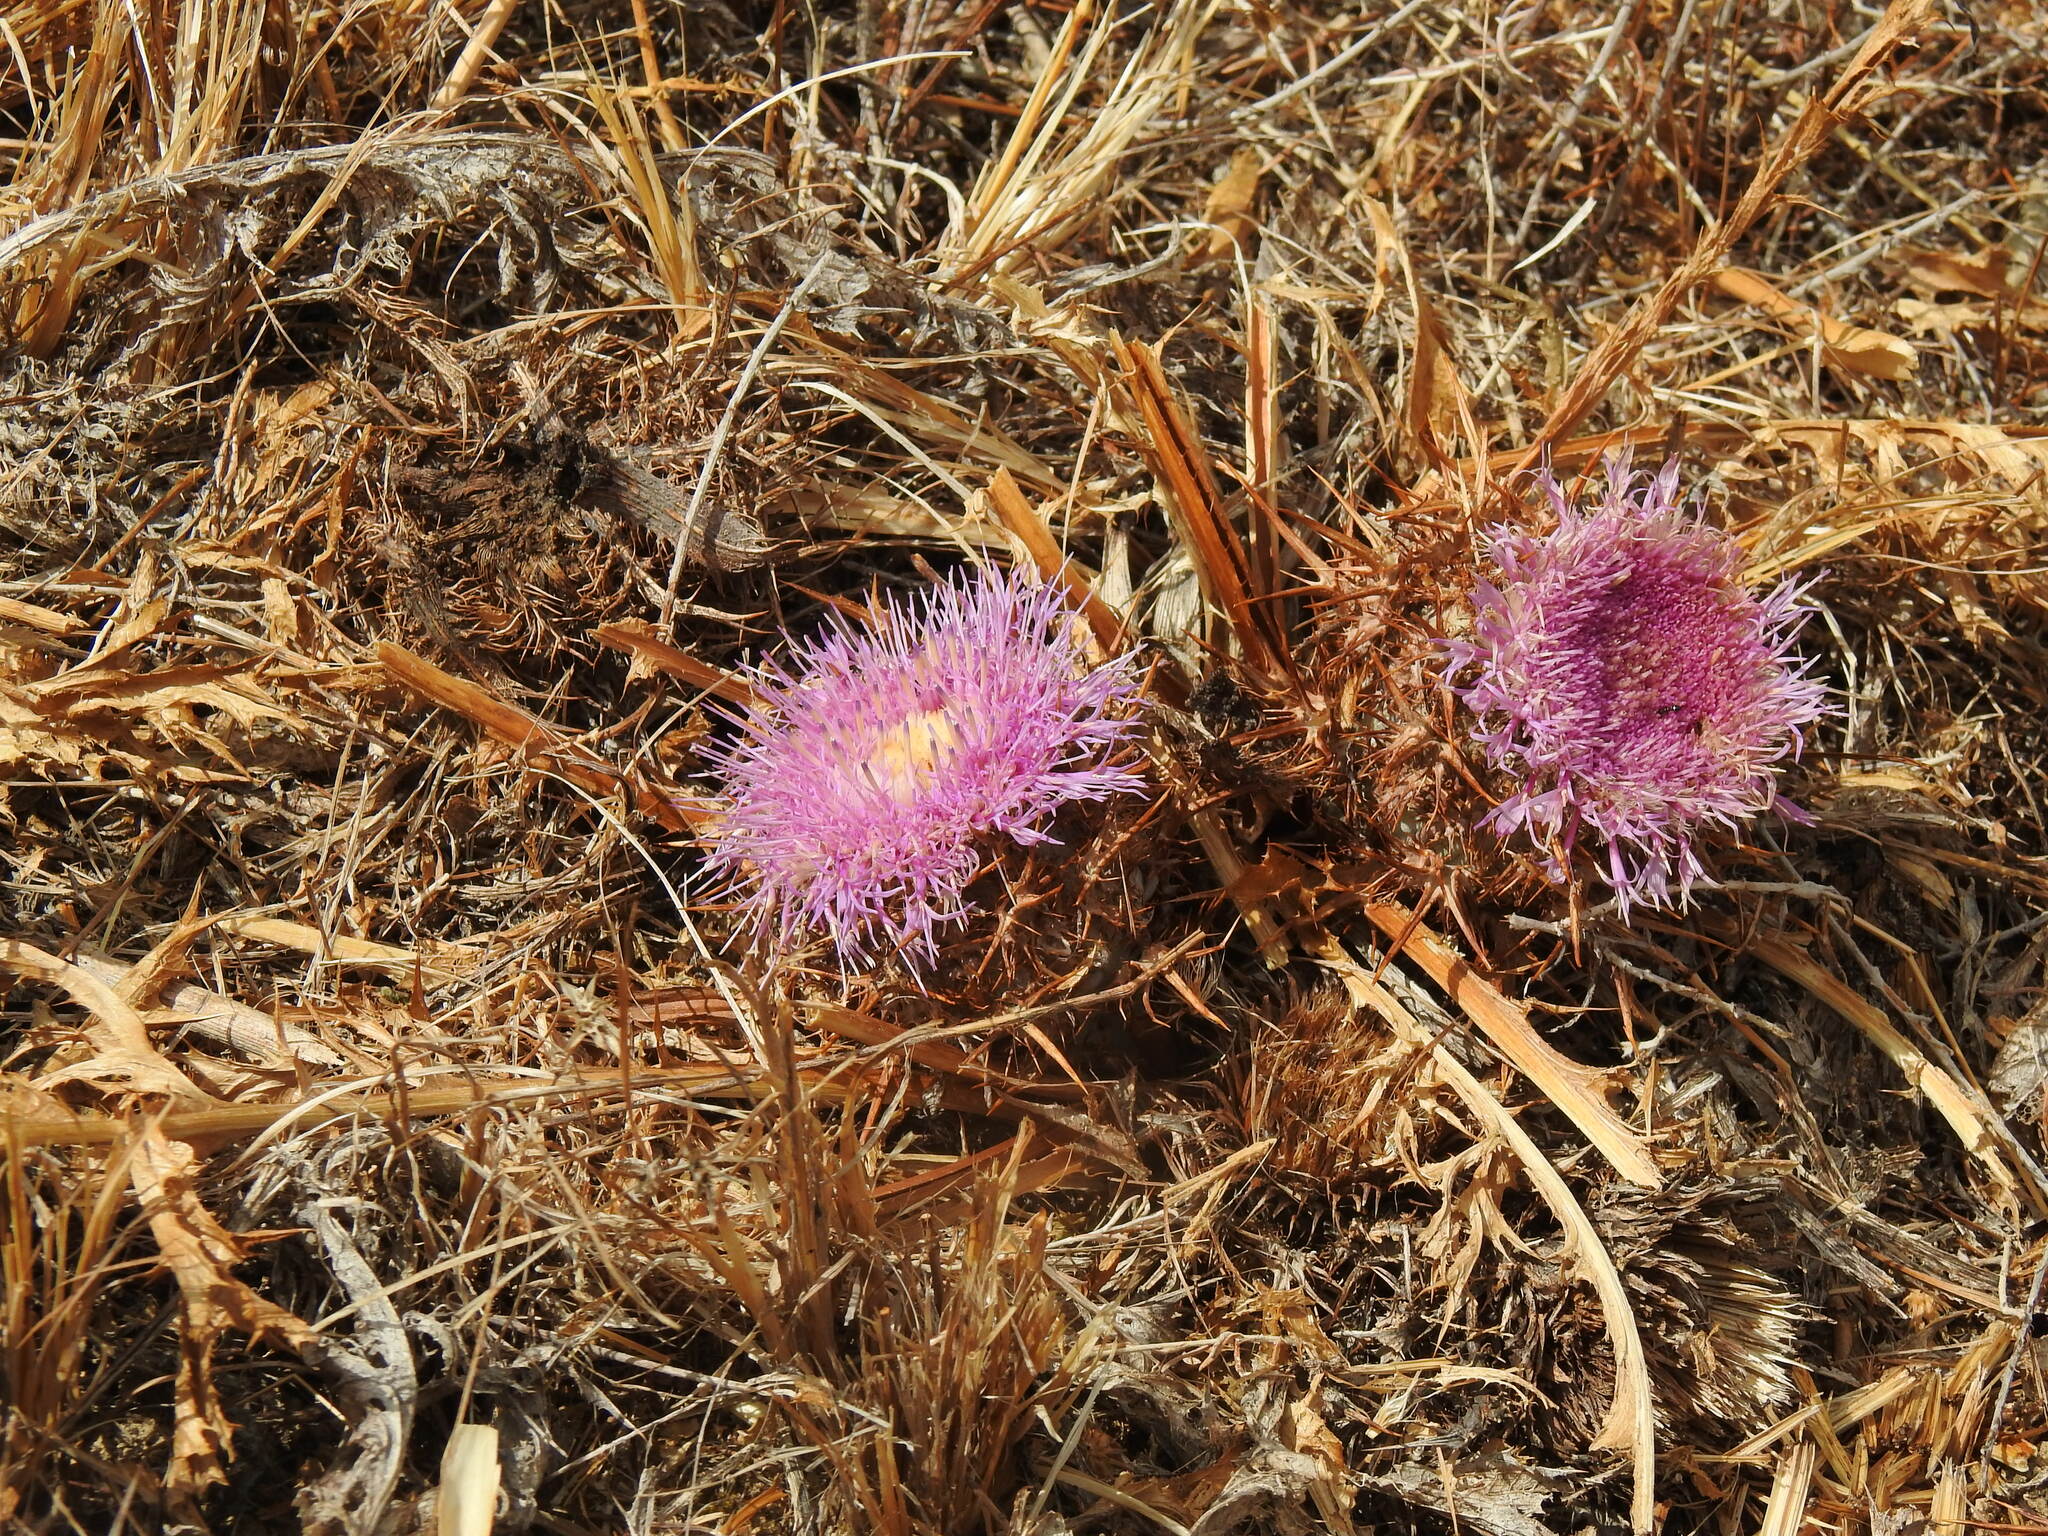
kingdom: Plantae
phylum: Tracheophyta
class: Magnoliopsida
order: Asterales
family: Asteraceae
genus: Chamaeleon
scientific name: Chamaeleon gummifer
